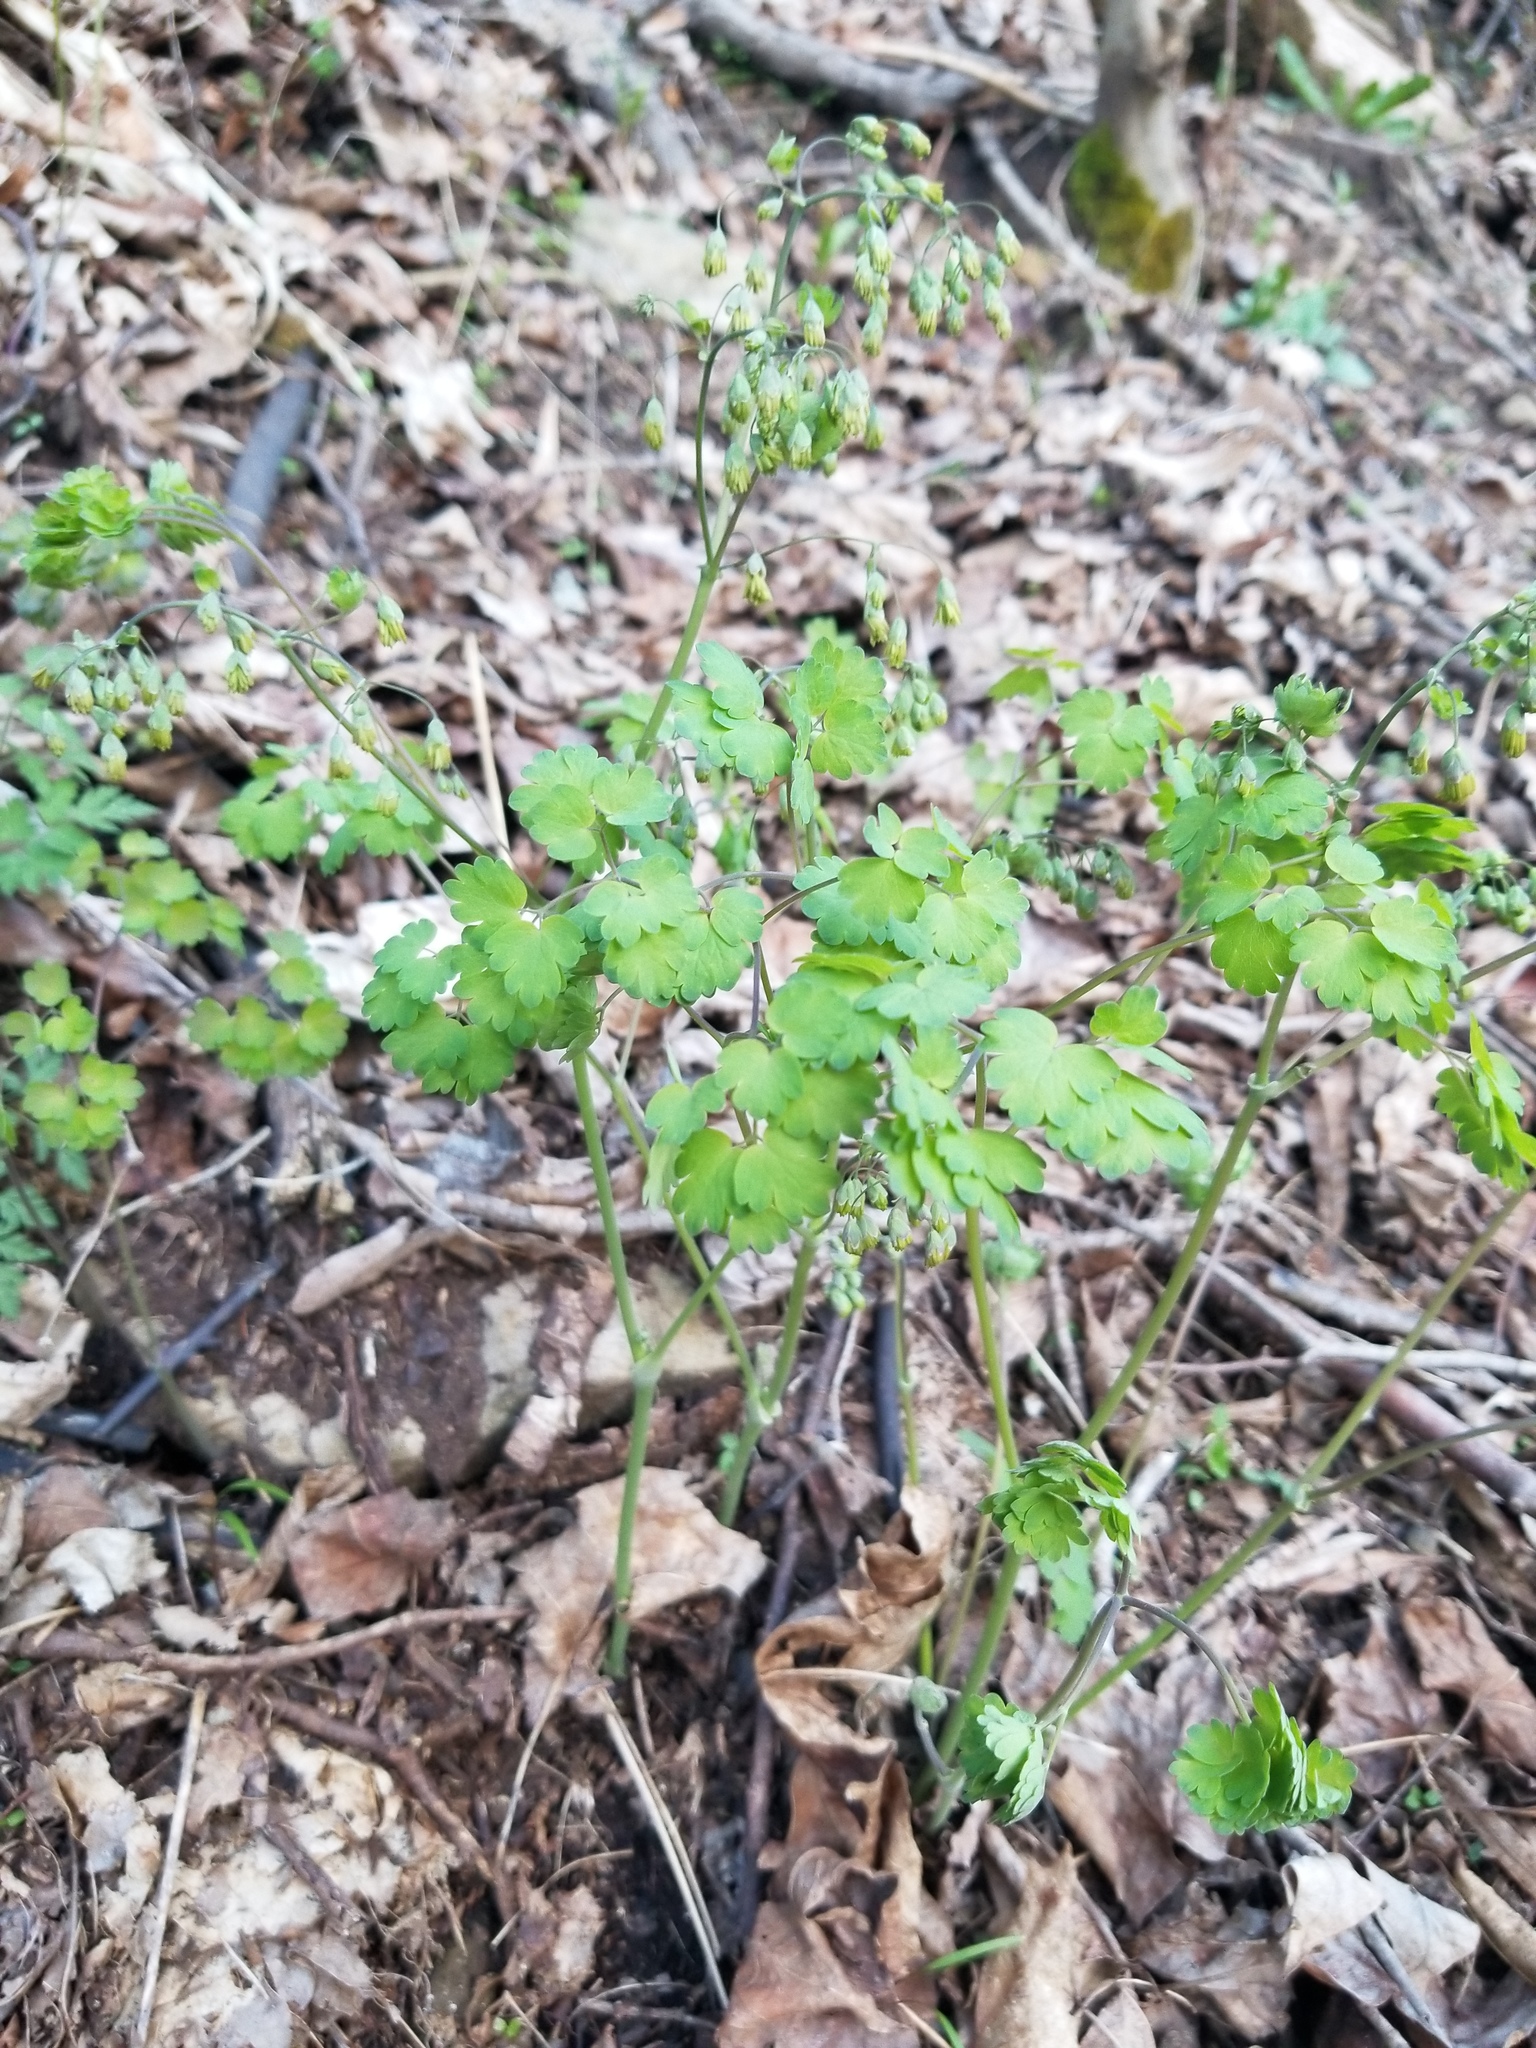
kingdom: Plantae
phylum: Tracheophyta
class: Magnoliopsida
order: Ranunculales
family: Ranunculaceae
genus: Thalictrum
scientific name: Thalictrum dioicum
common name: Early meadow-rue
